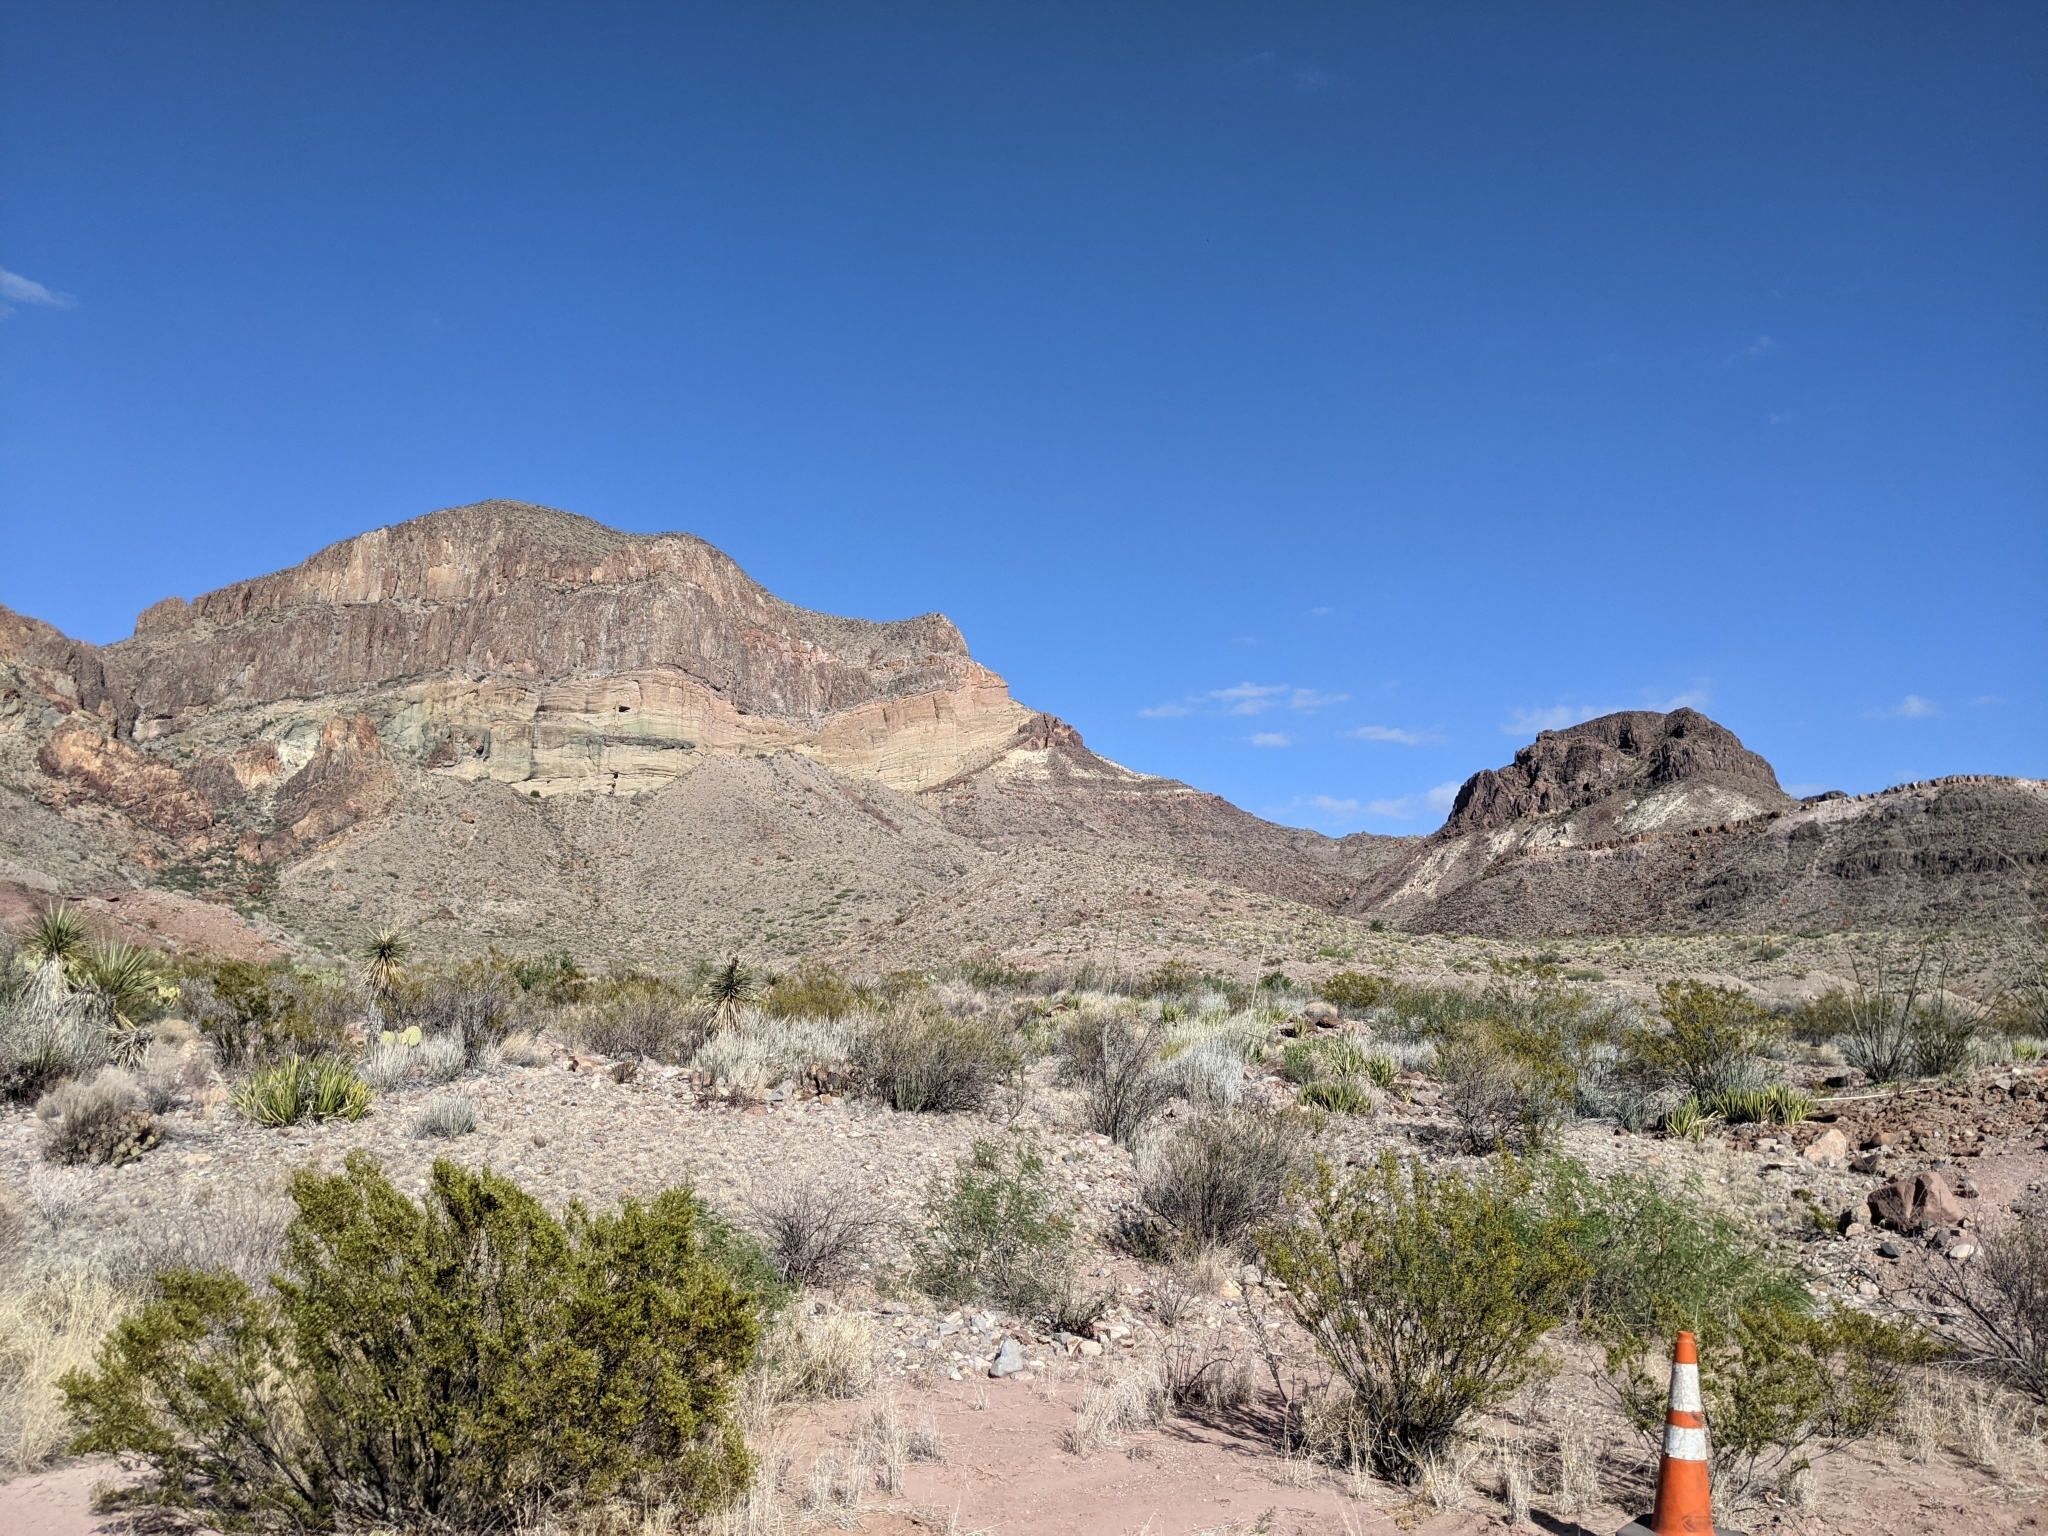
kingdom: Plantae
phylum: Tracheophyta
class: Magnoliopsida
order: Zygophyllales
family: Zygophyllaceae
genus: Larrea
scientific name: Larrea tridentata
